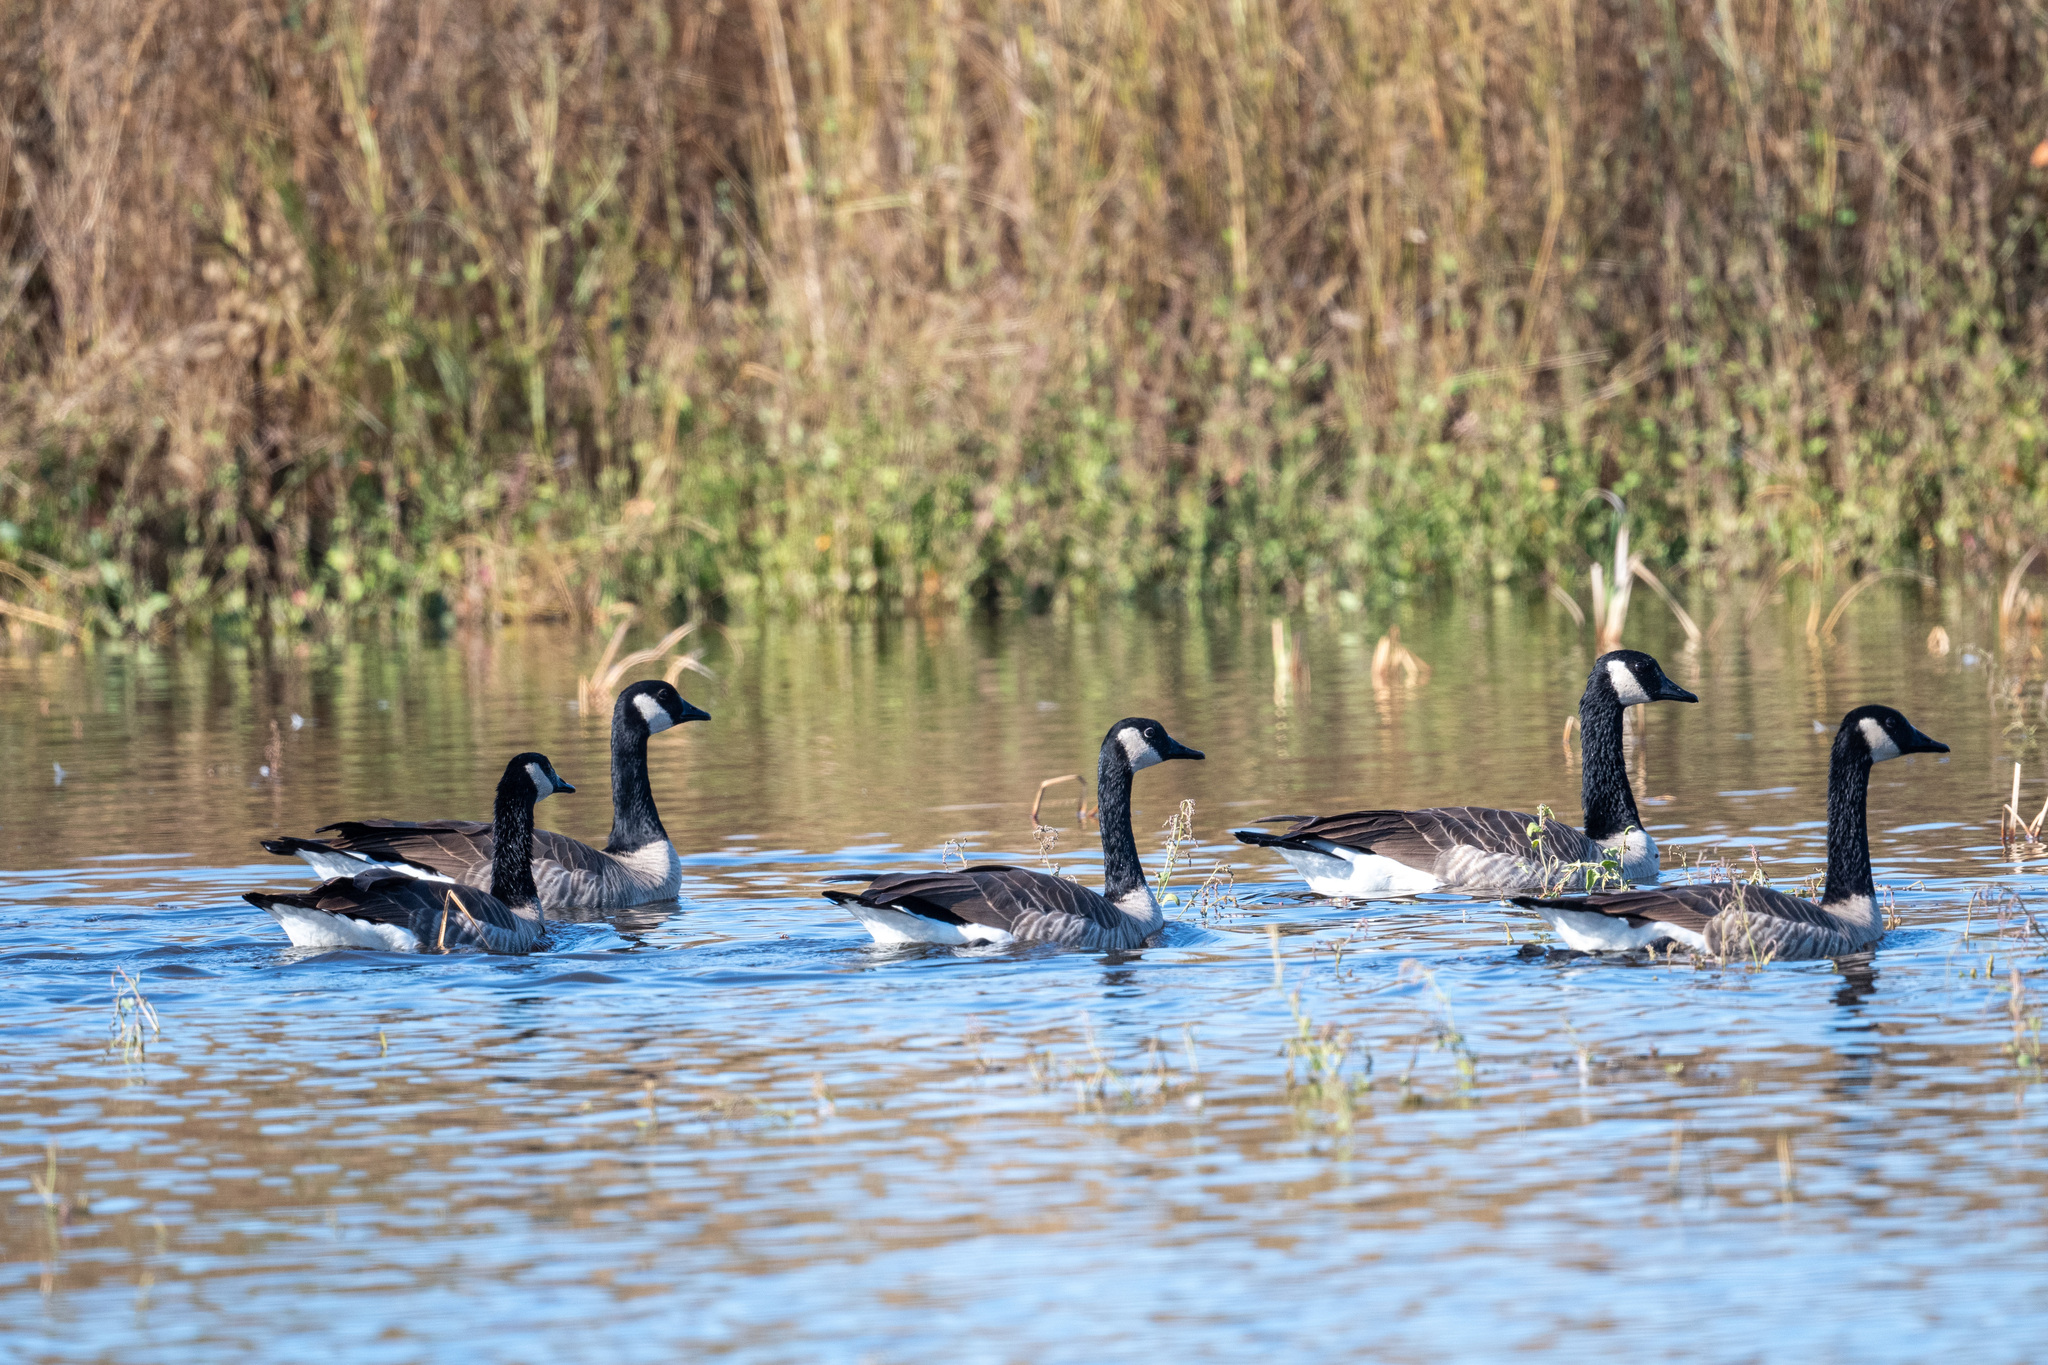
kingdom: Animalia
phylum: Chordata
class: Aves
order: Anseriformes
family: Anatidae
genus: Branta
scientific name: Branta canadensis
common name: Canada goose
